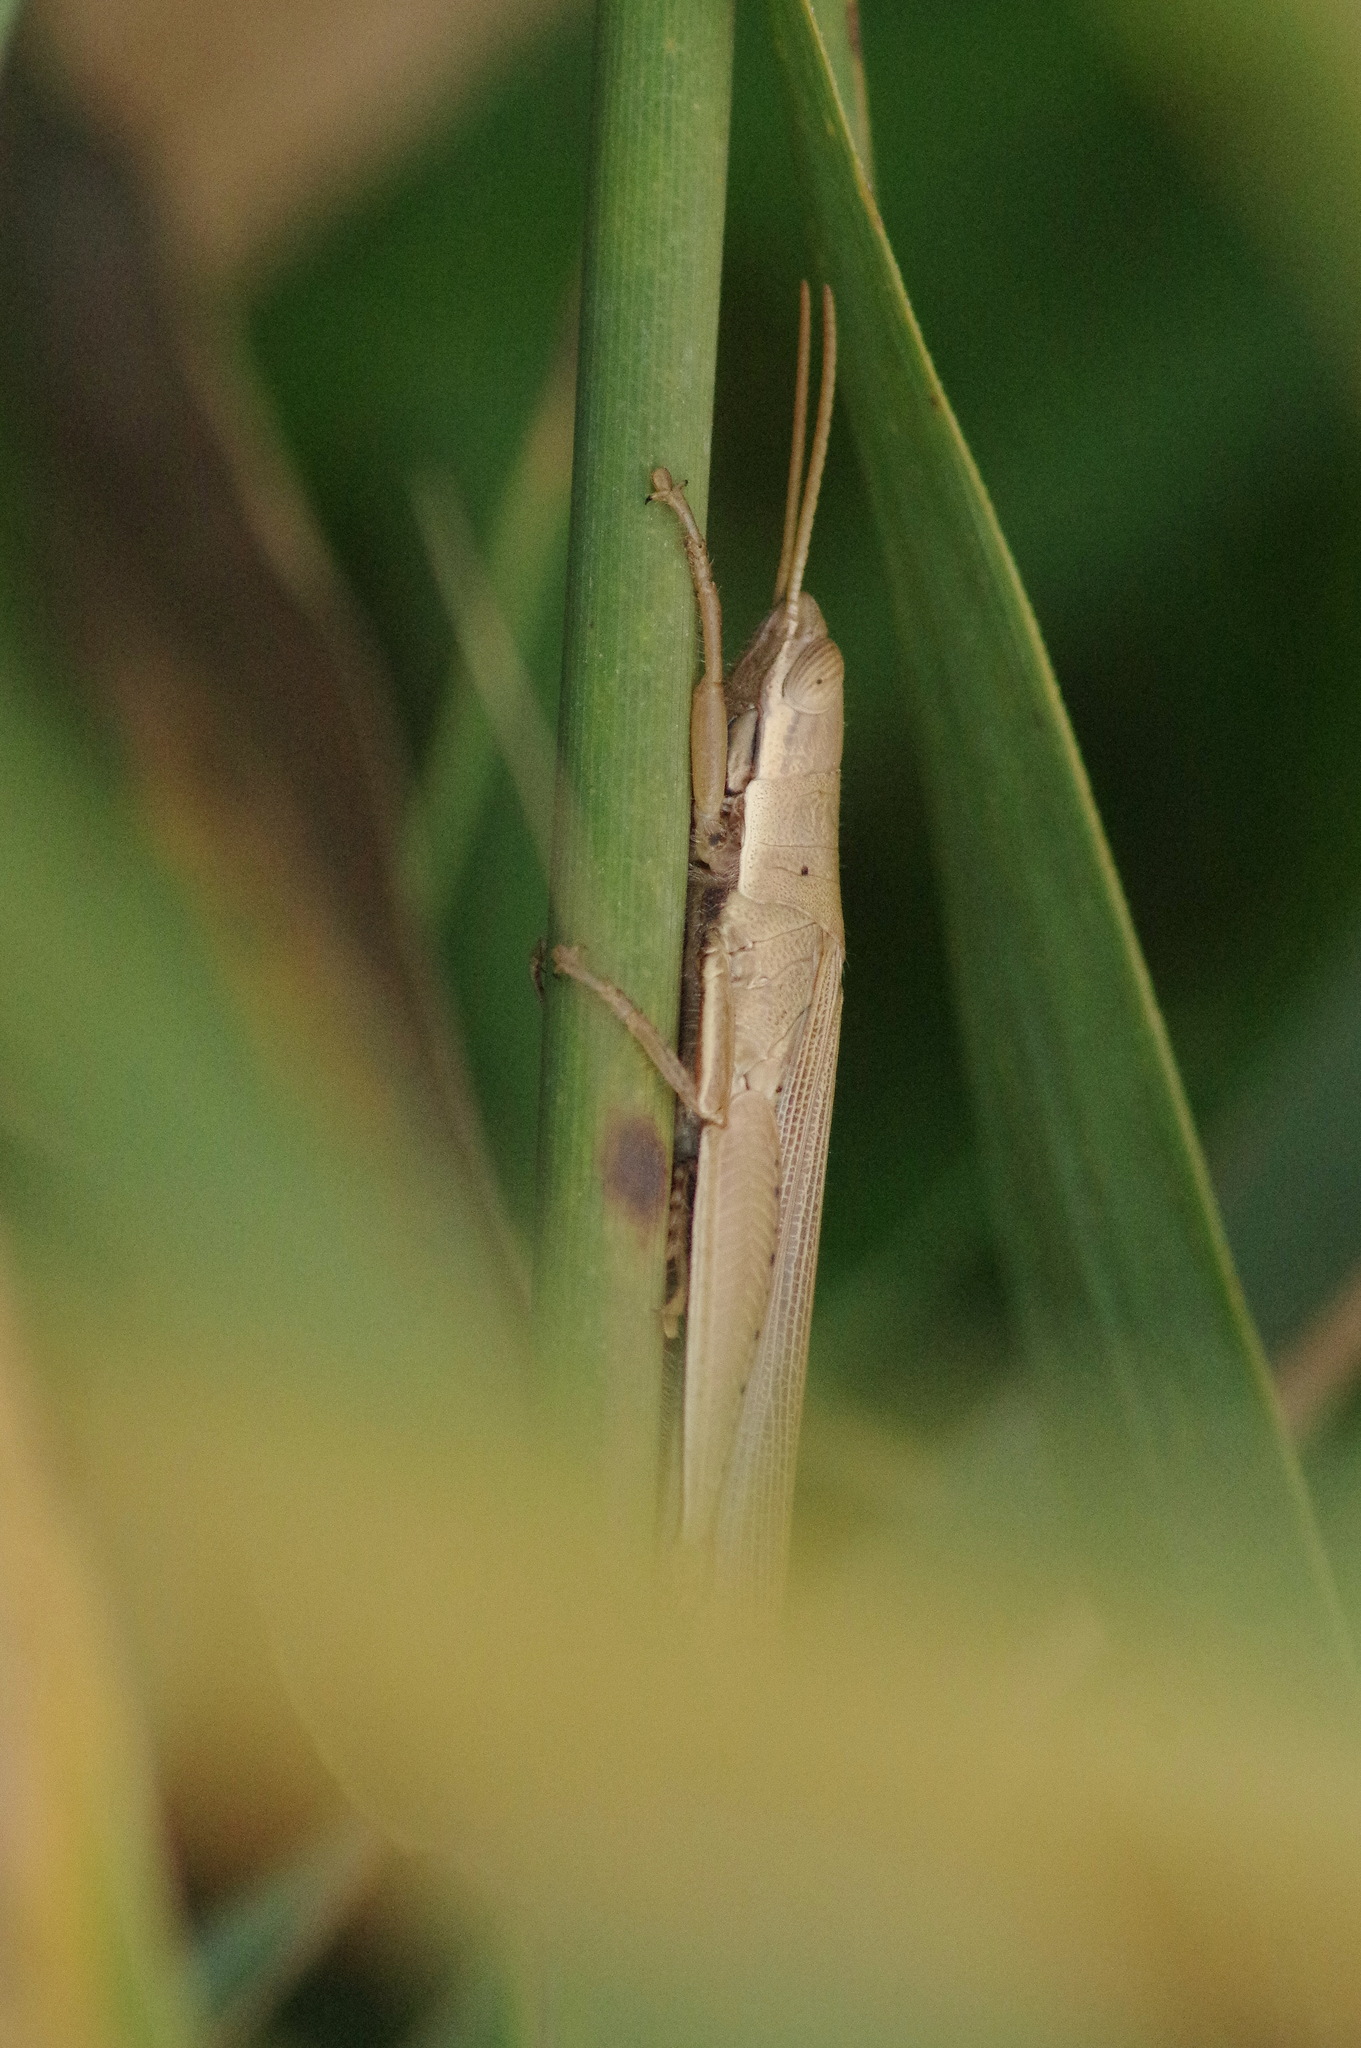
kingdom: Animalia
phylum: Arthropoda
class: Insecta
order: Orthoptera
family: Acrididae
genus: Tropidopola
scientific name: Tropidopola cylindrica
